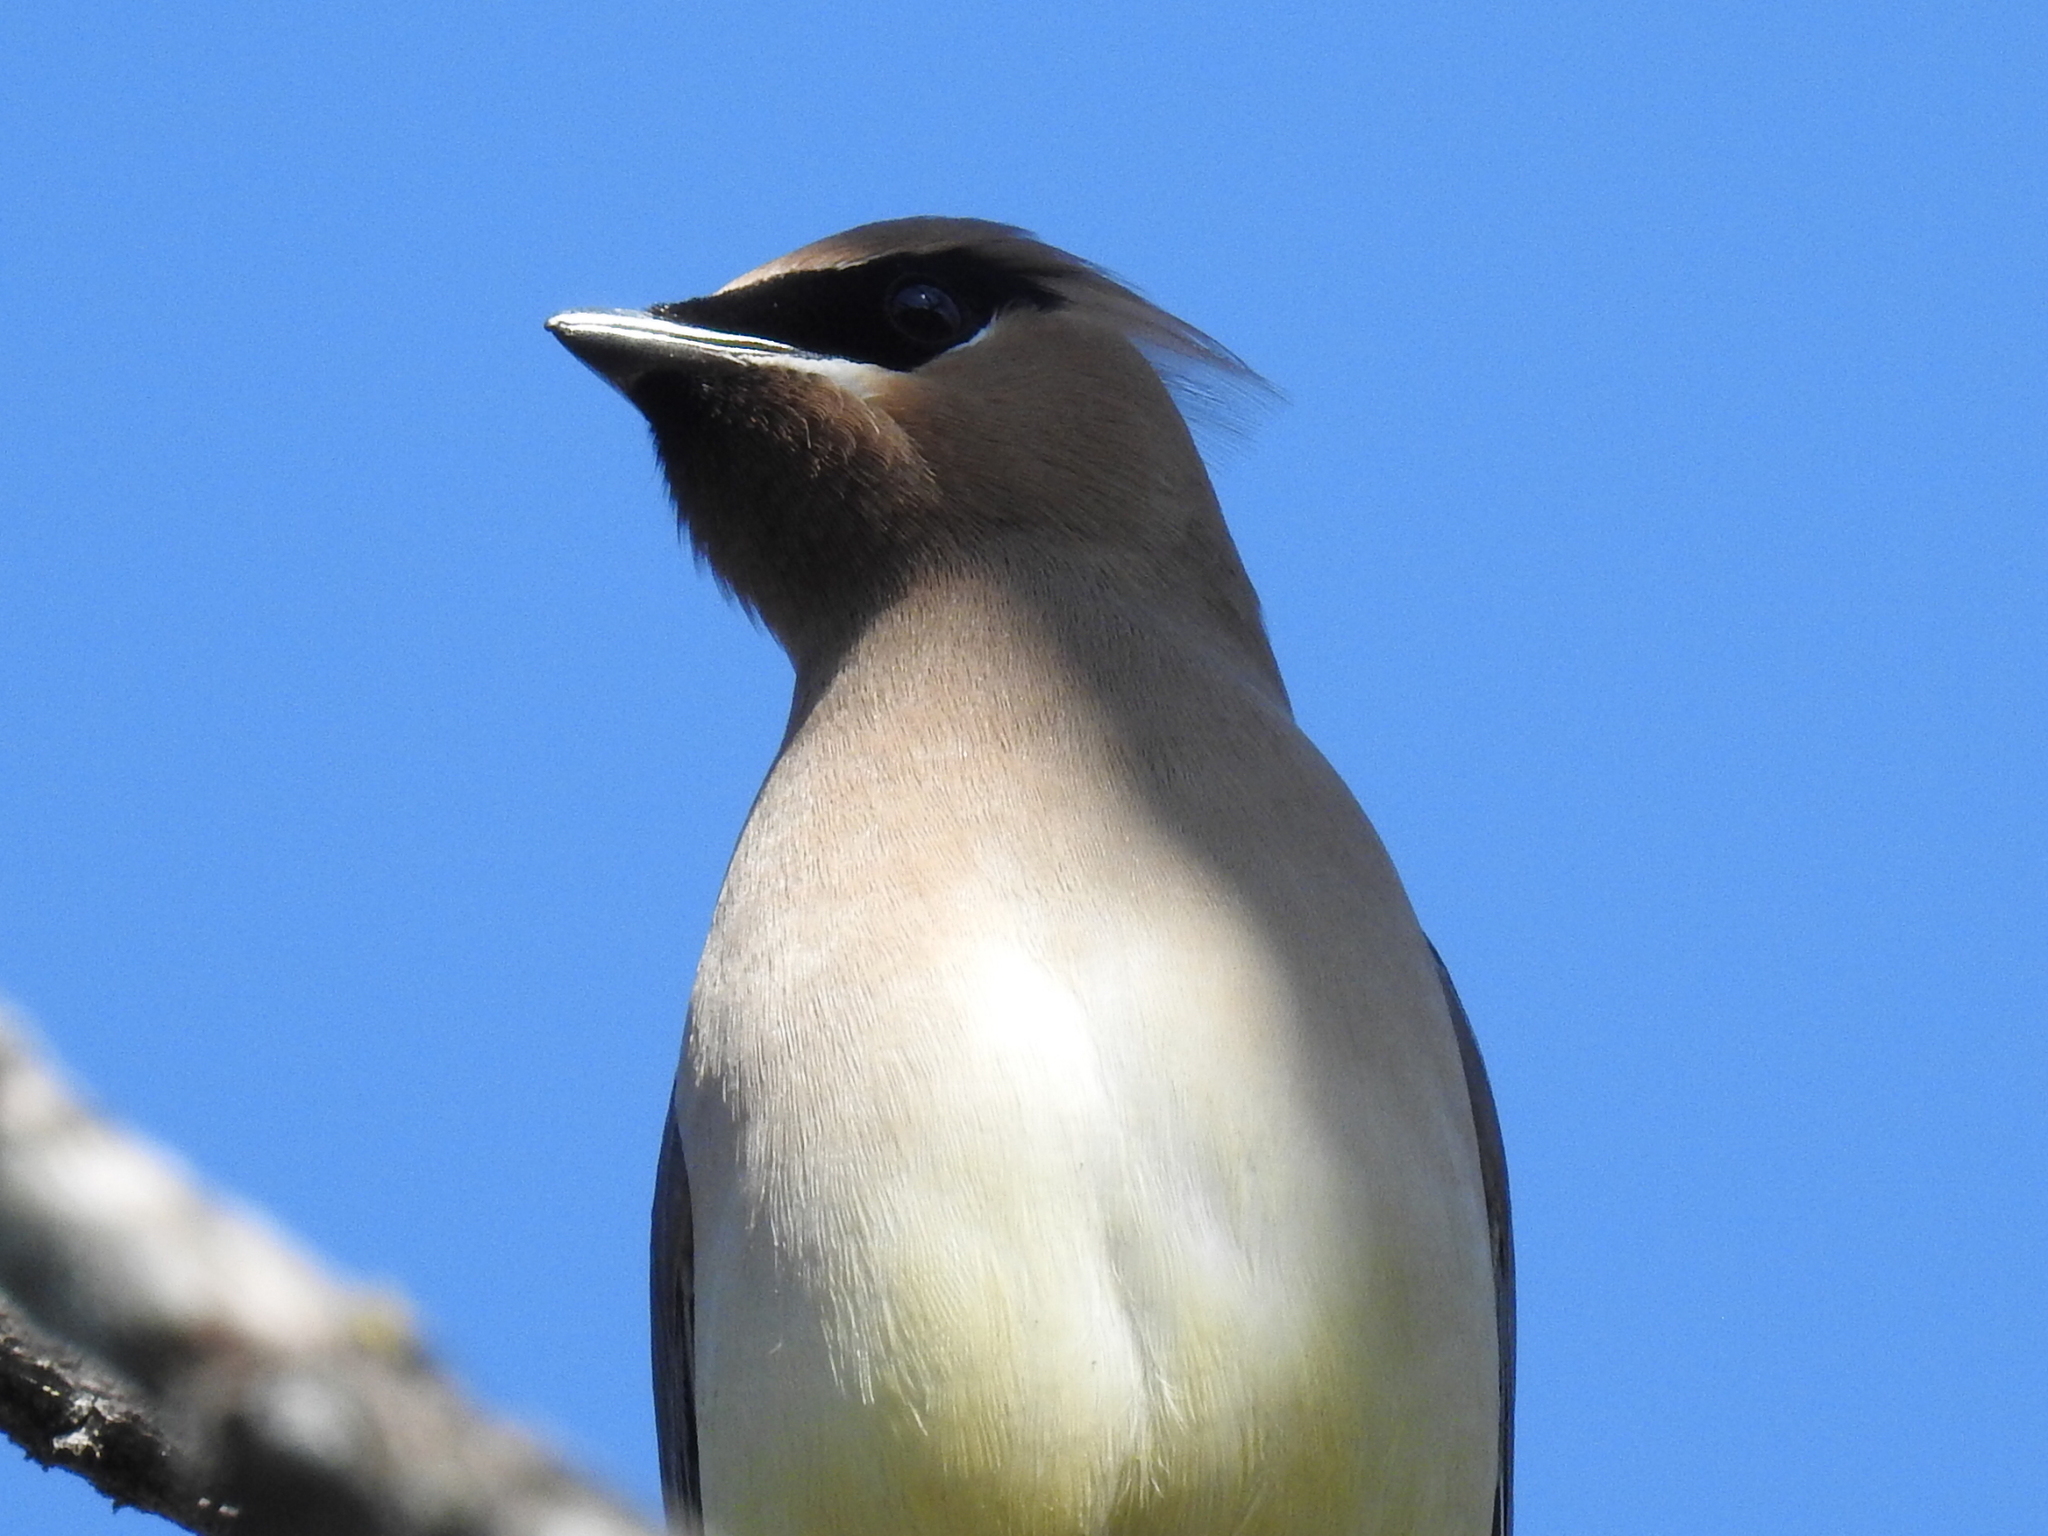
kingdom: Animalia
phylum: Chordata
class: Aves
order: Passeriformes
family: Bombycillidae
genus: Bombycilla
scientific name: Bombycilla cedrorum
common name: Cedar waxwing
